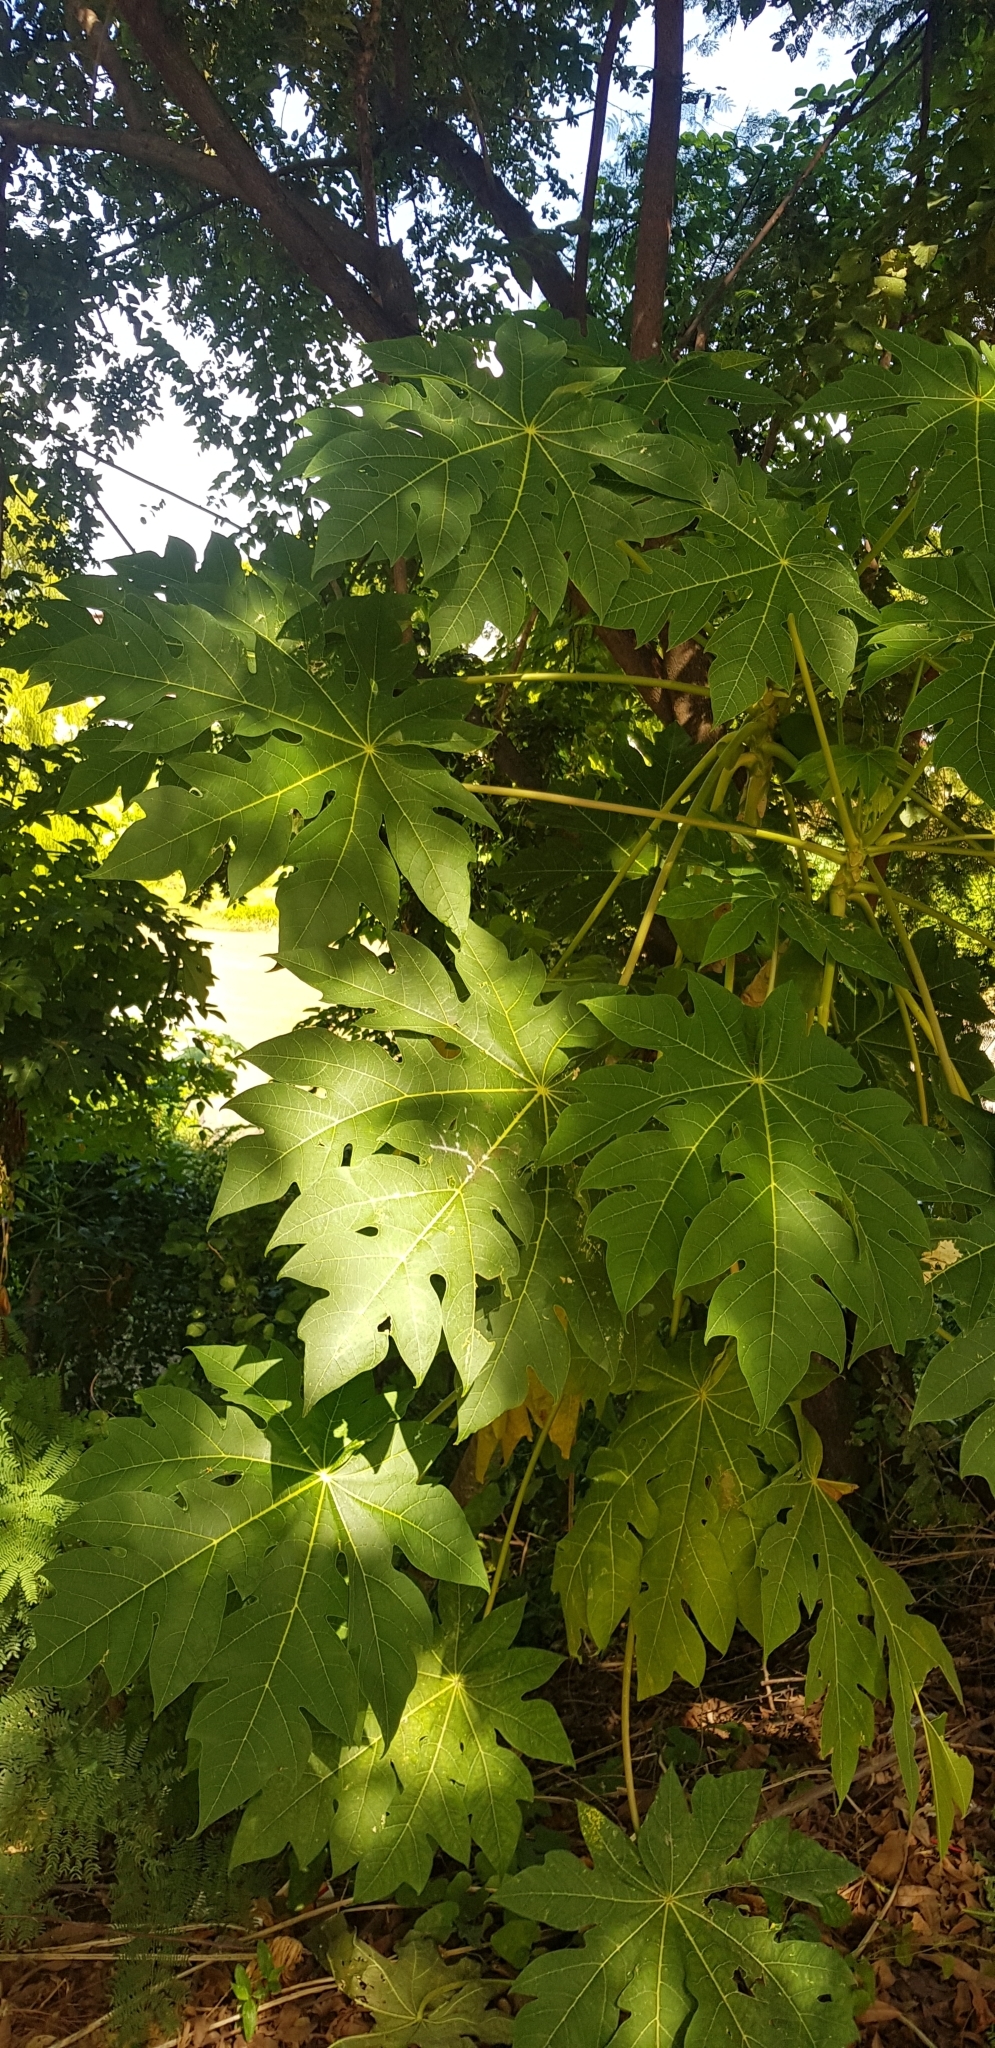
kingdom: Plantae
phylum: Tracheophyta
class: Magnoliopsida
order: Brassicales
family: Caricaceae
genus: Carica
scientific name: Carica papaya
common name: Papaya
